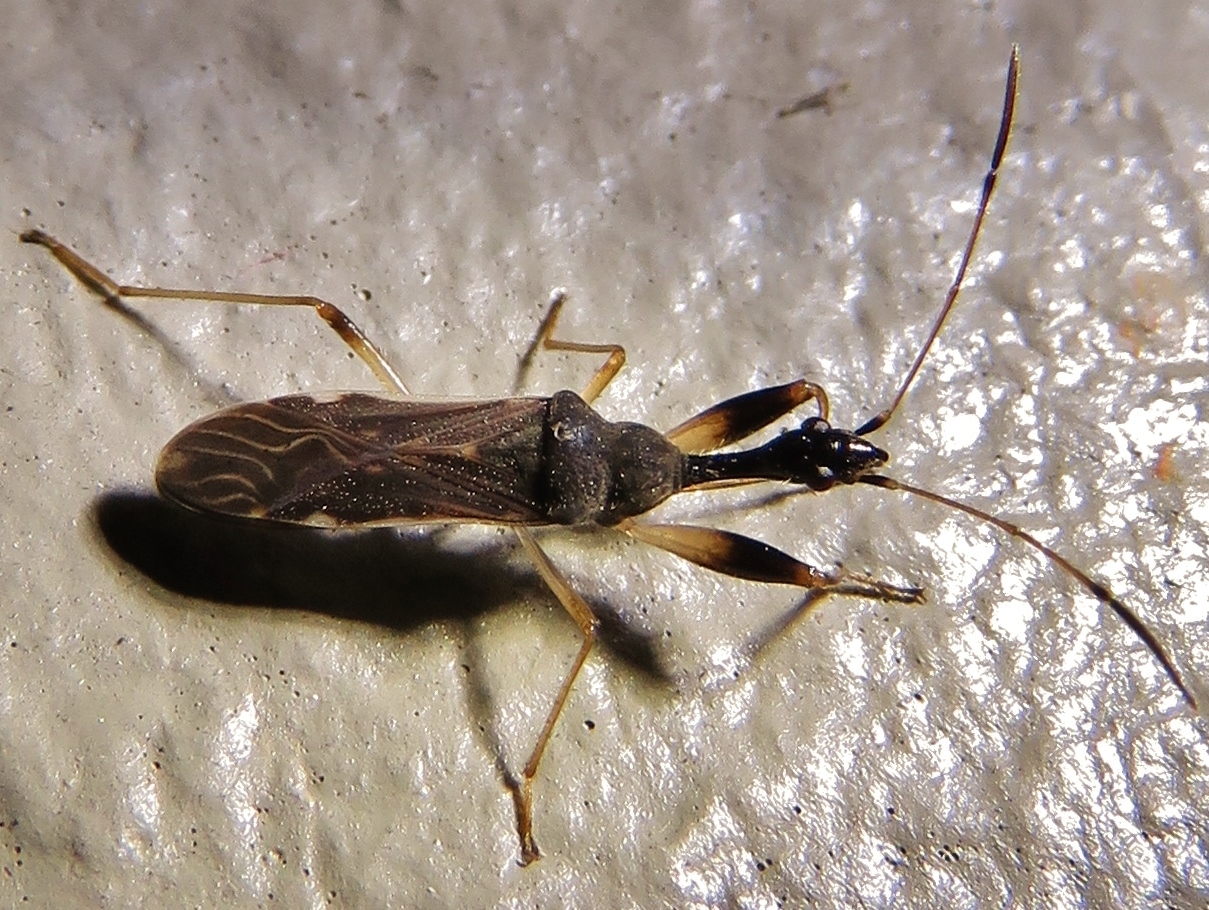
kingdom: Animalia
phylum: Arthropoda
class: Insecta
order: Hemiptera
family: Rhyparochromidae
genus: Myodocha
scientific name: Myodocha serripes
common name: Long-necked seed bug
